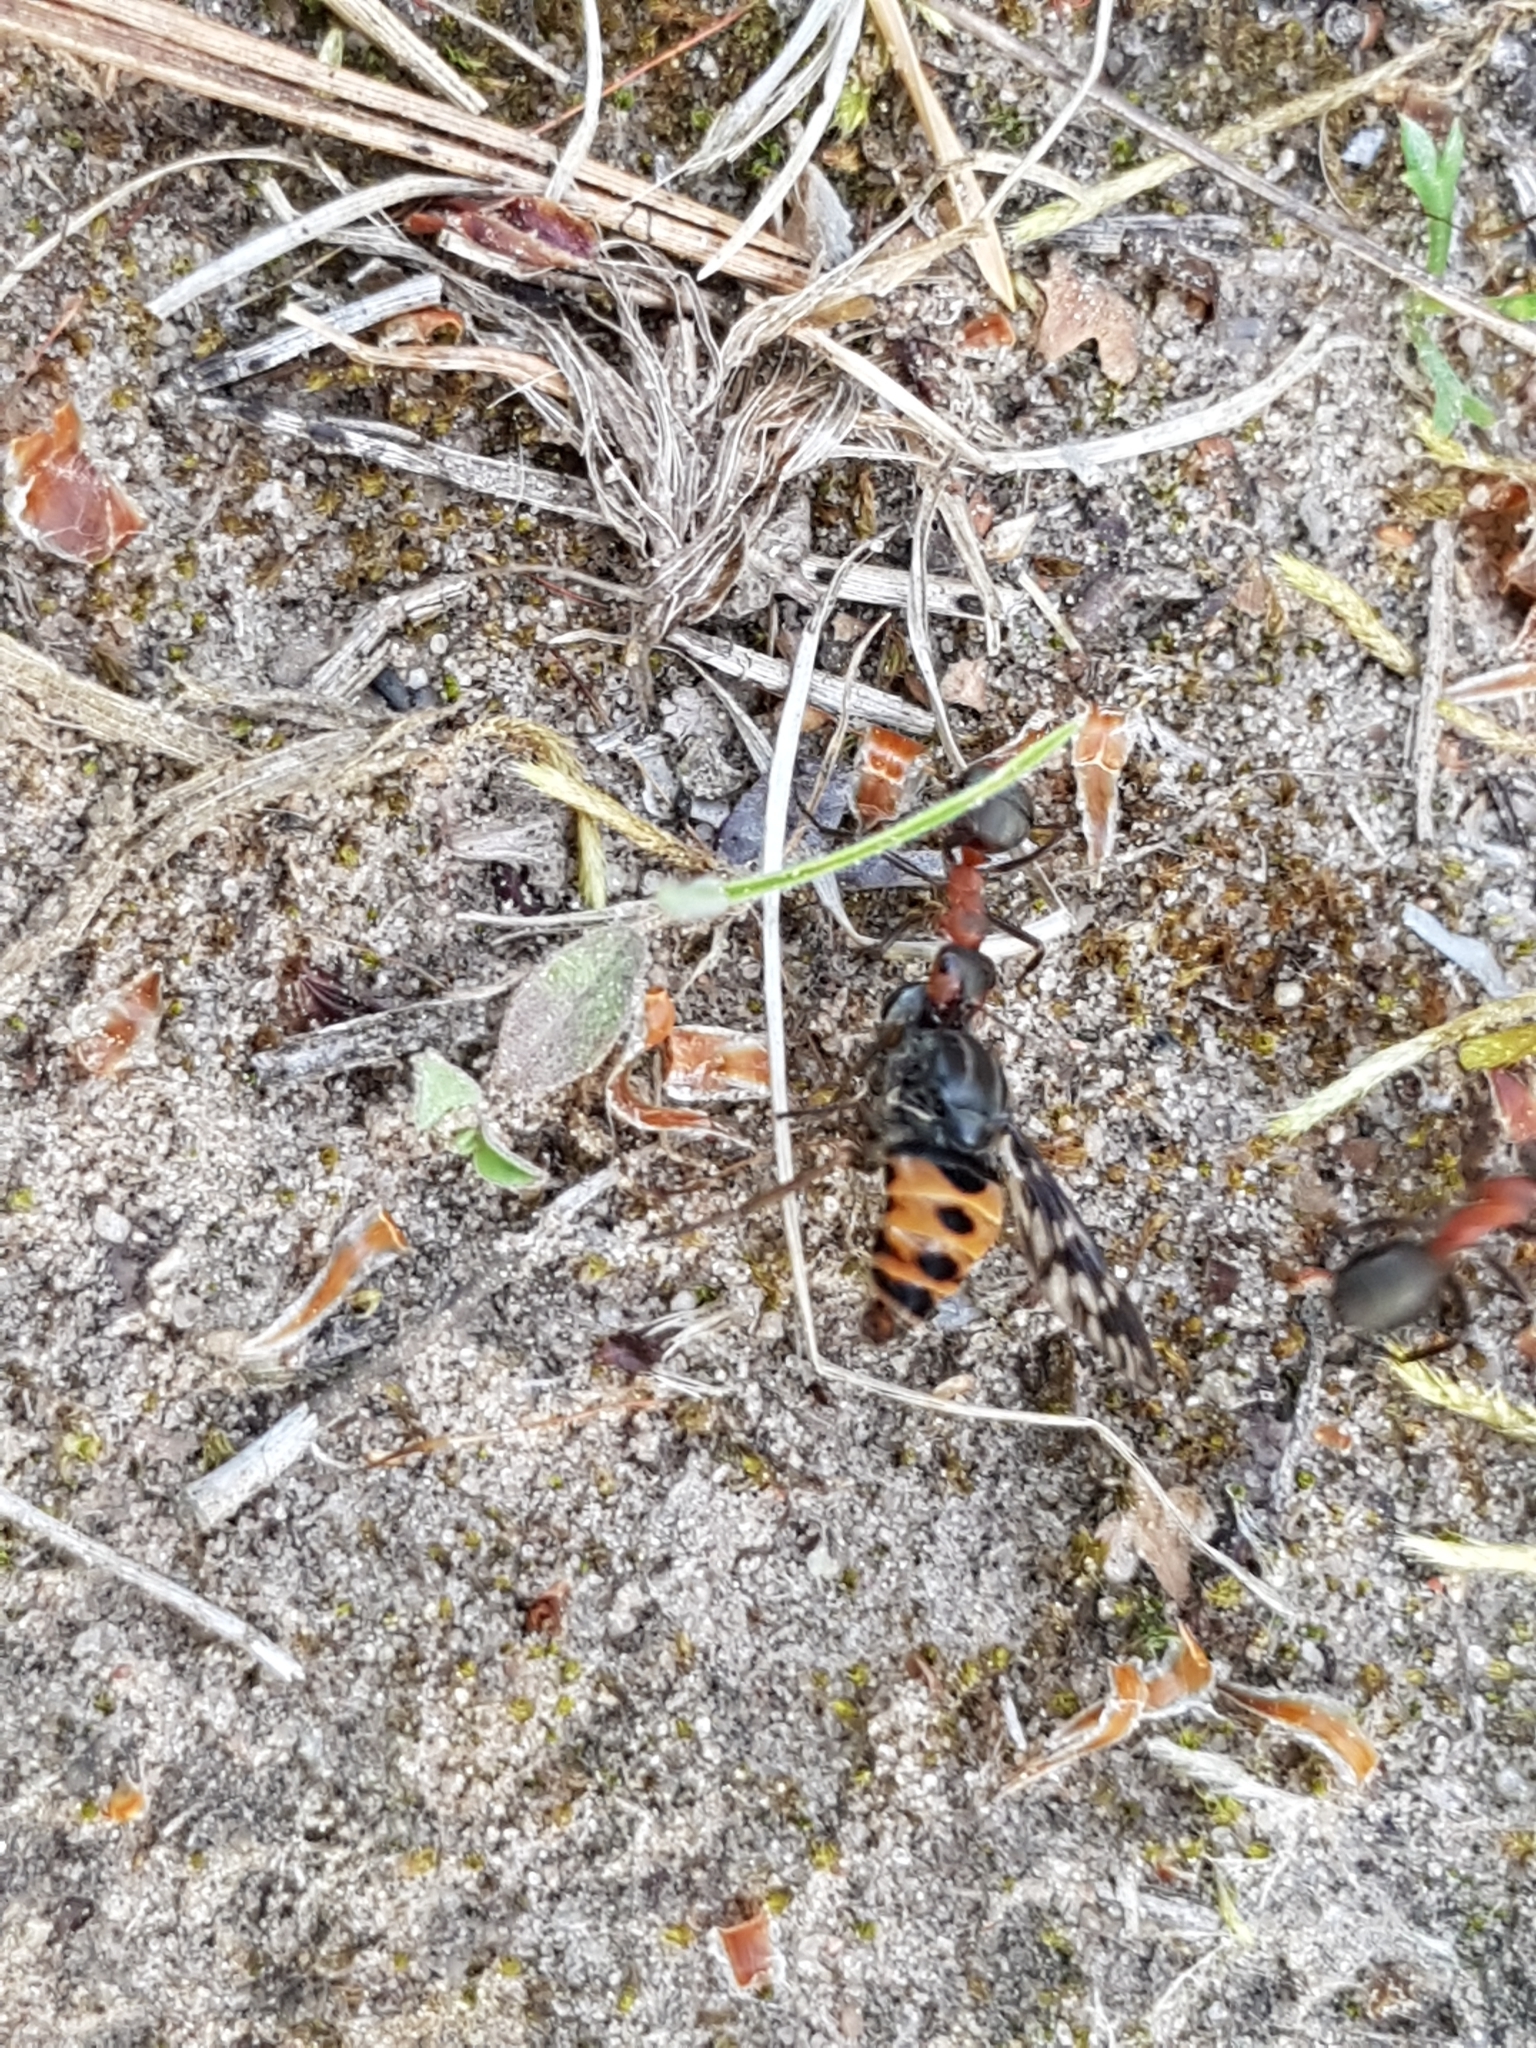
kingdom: Animalia
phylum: Arthropoda
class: Insecta
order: Diptera
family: Athericidae
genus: Atherix
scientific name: Atherix ibis
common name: Yellow-legged water-snipefly
